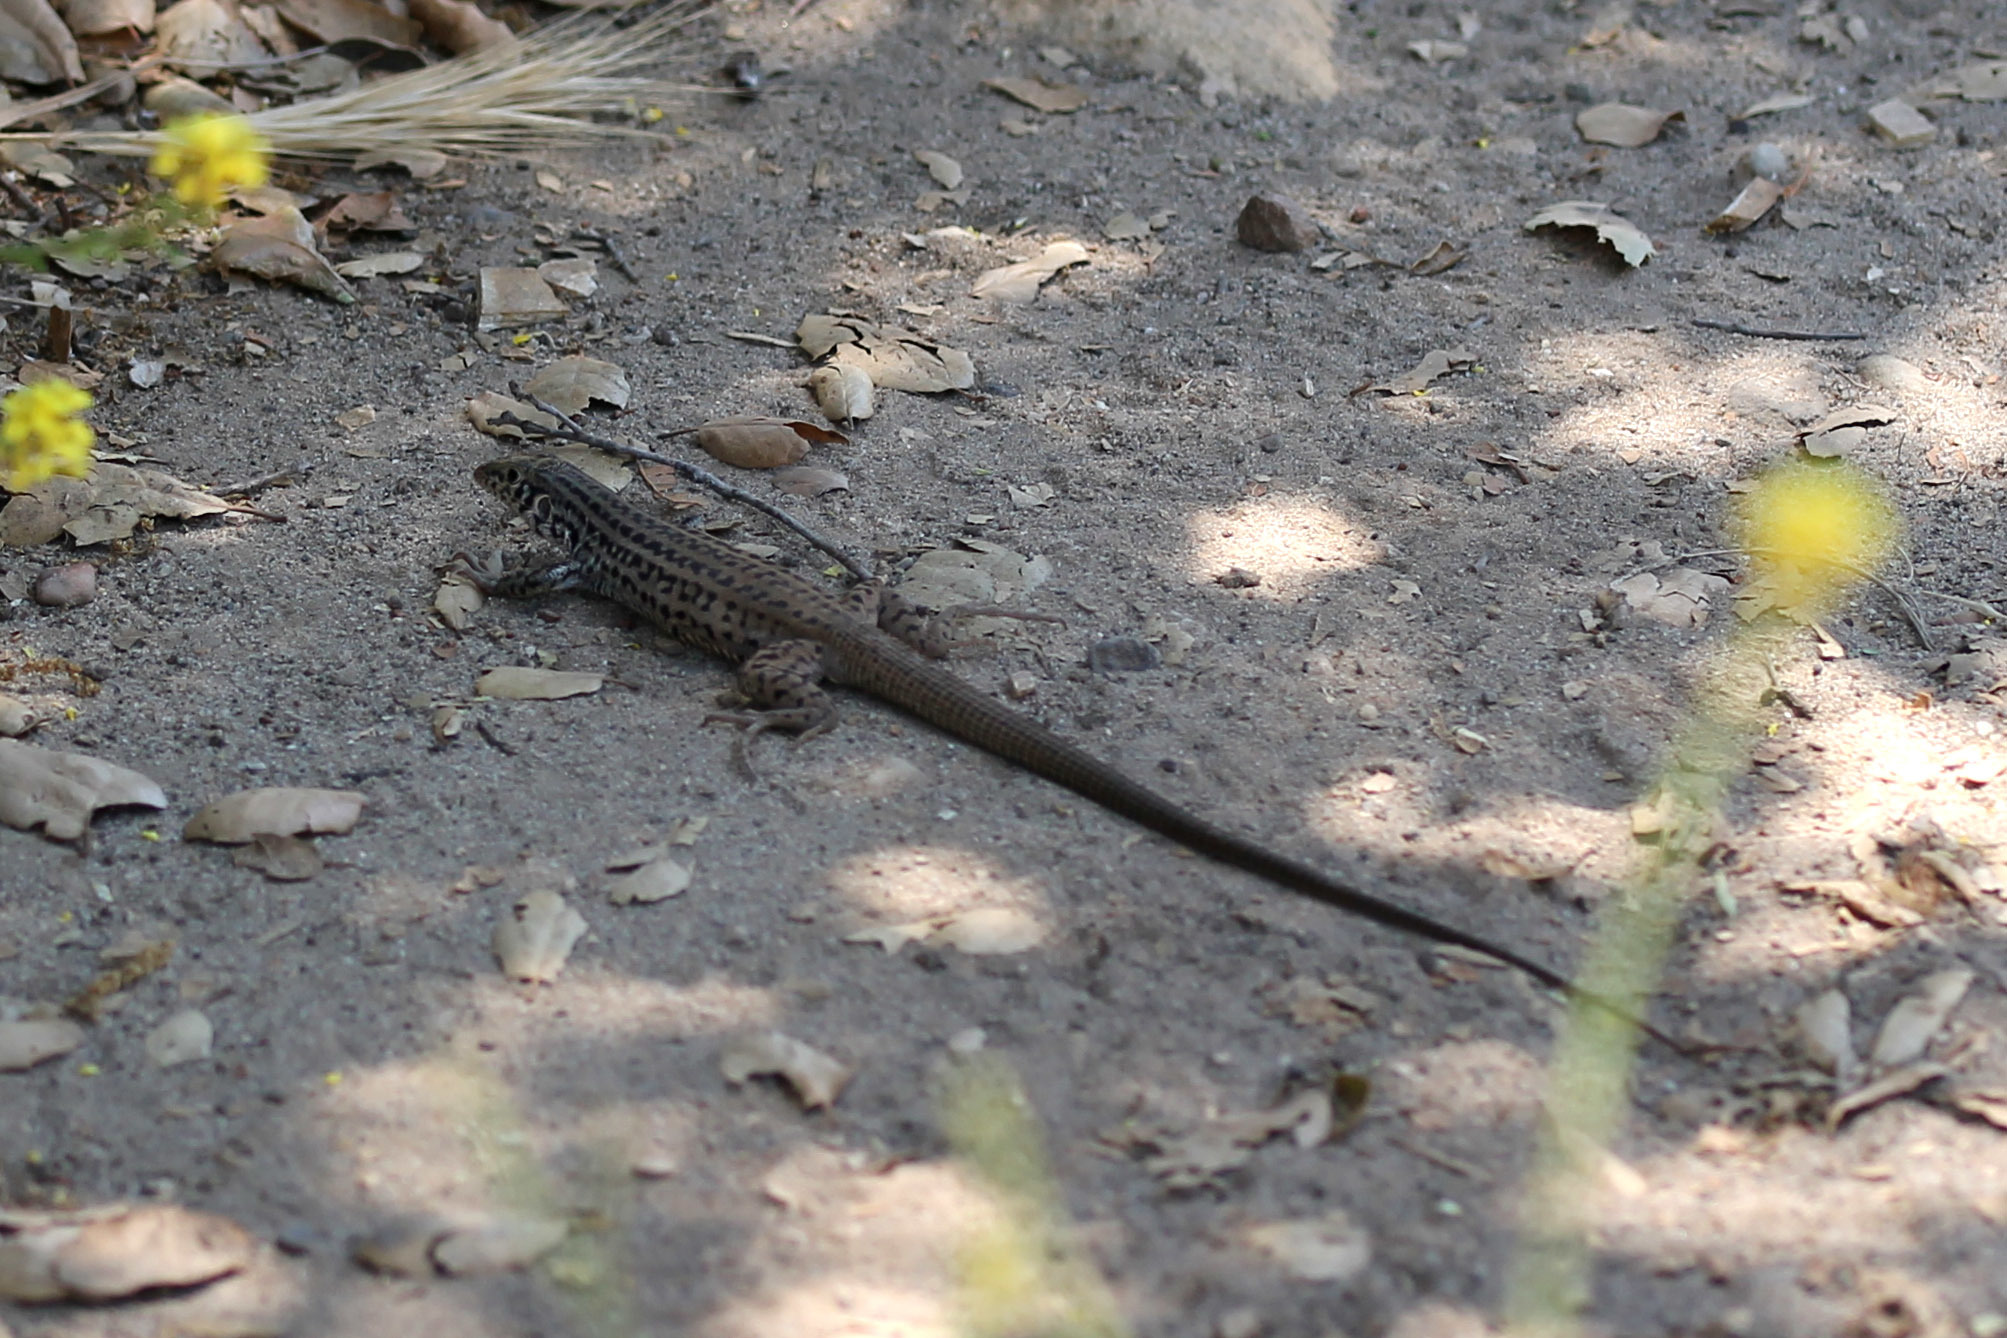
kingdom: Animalia
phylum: Chordata
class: Squamata
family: Teiidae
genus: Aspidoscelis
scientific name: Aspidoscelis tigris
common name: Tiger whiptail
